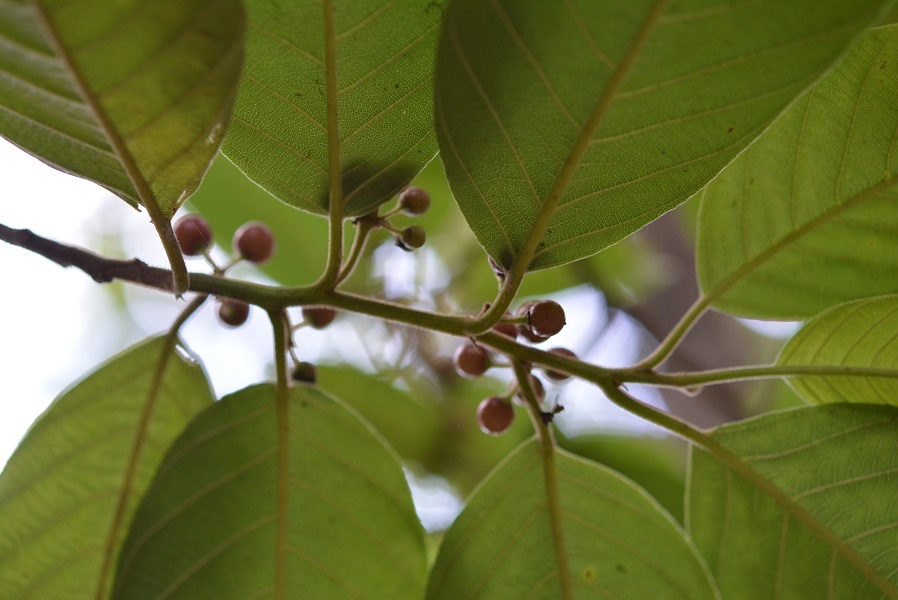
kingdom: Plantae
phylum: Tracheophyta
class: Magnoliopsida
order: Rosales
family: Rhamnaceae
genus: Frangula
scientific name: Frangula capreifolia
